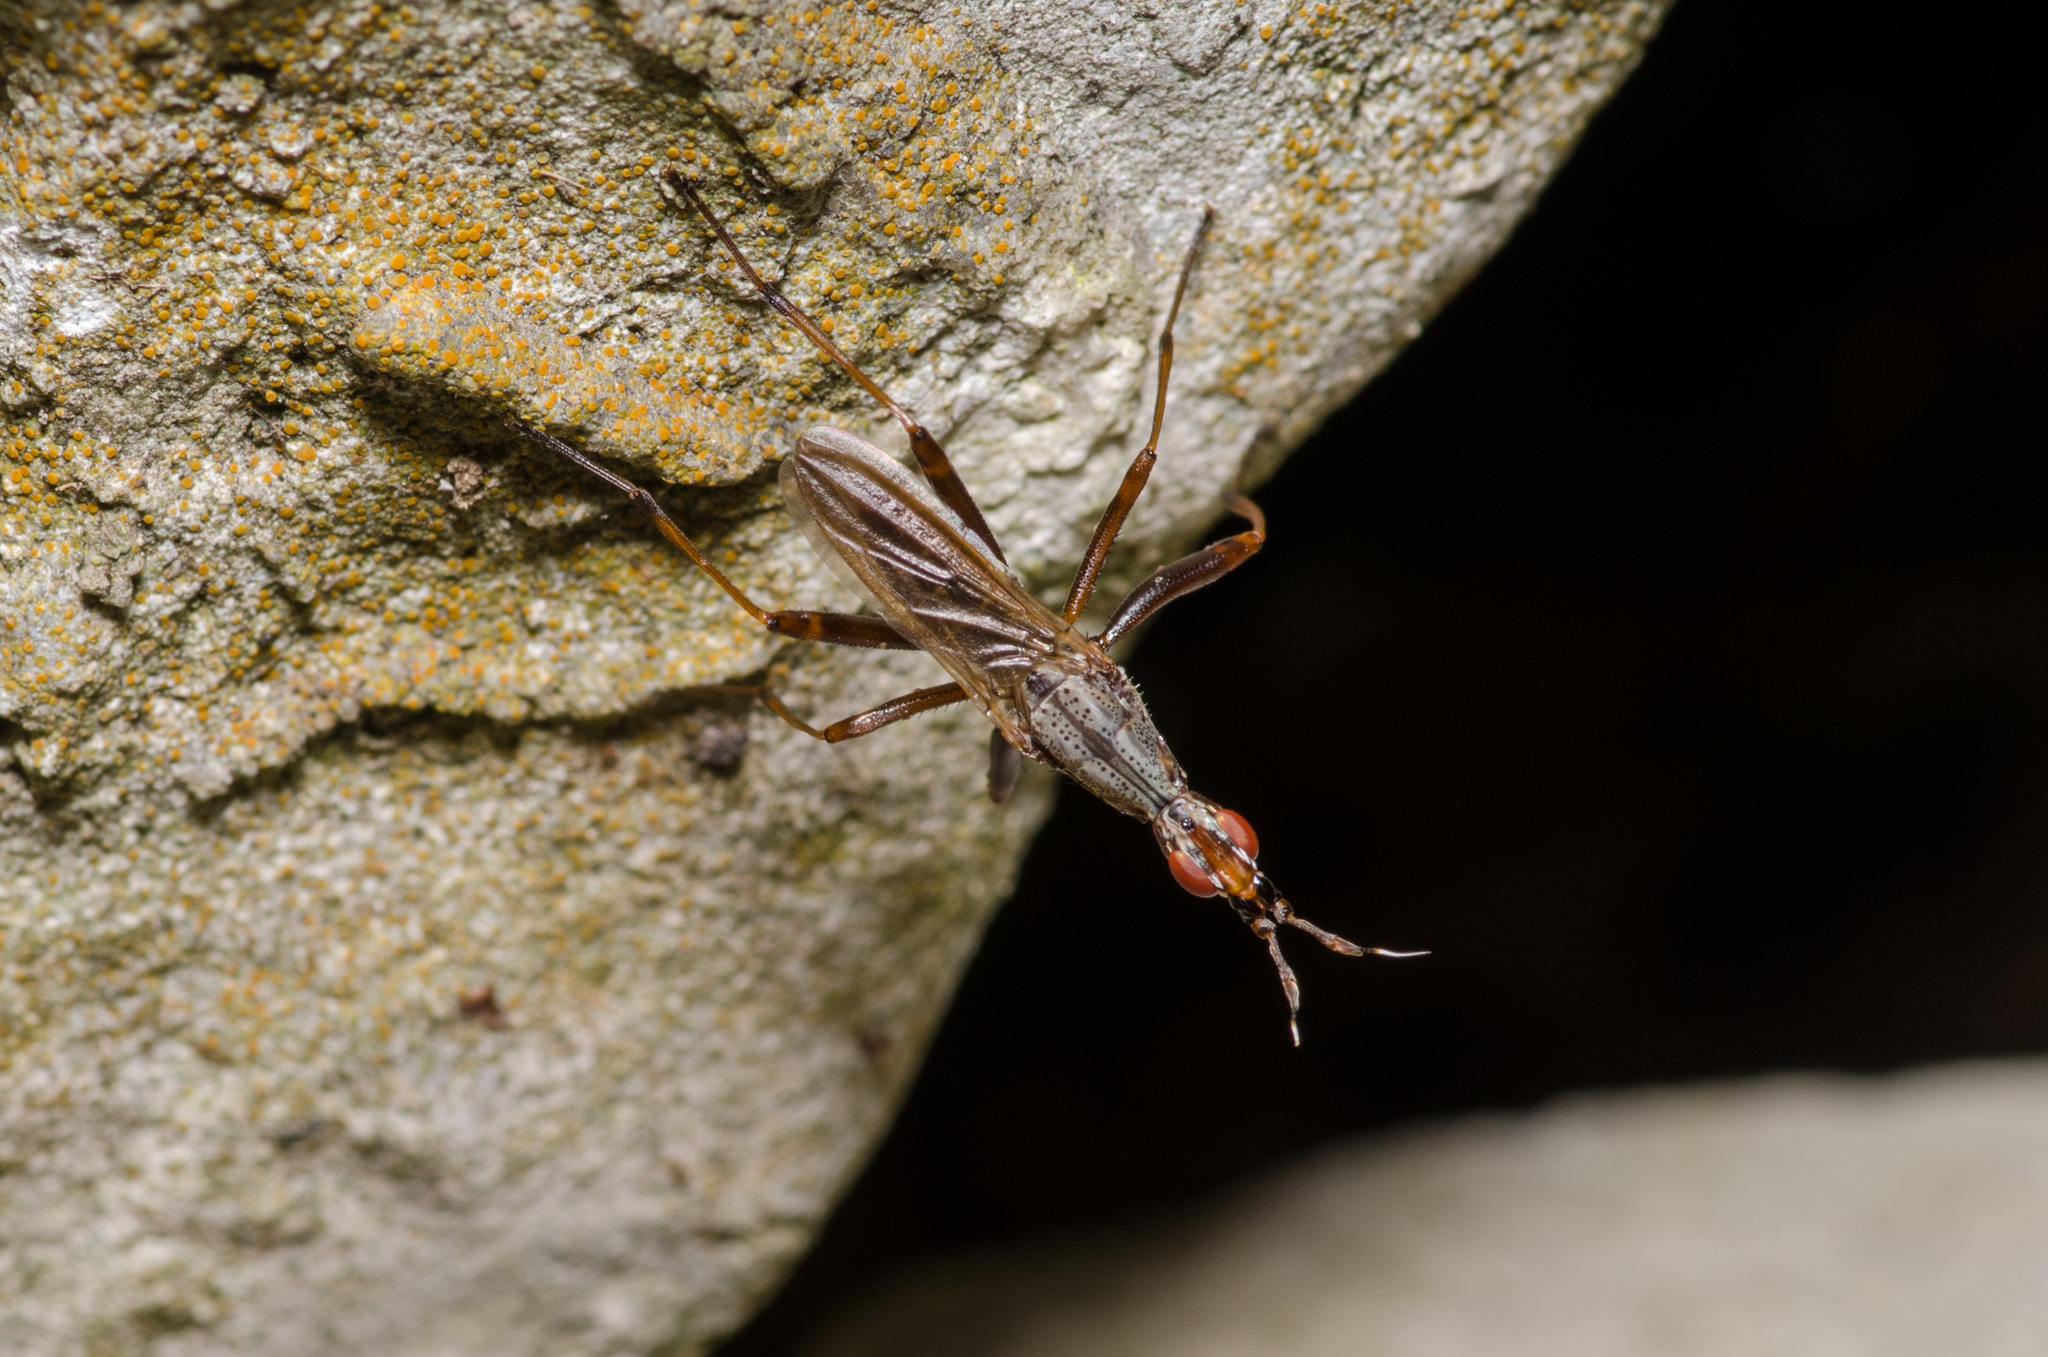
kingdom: Animalia
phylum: Arthropoda
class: Insecta
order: Diptera
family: Neriidae
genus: Odontoloxozus
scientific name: Odontoloxozus longicornis
